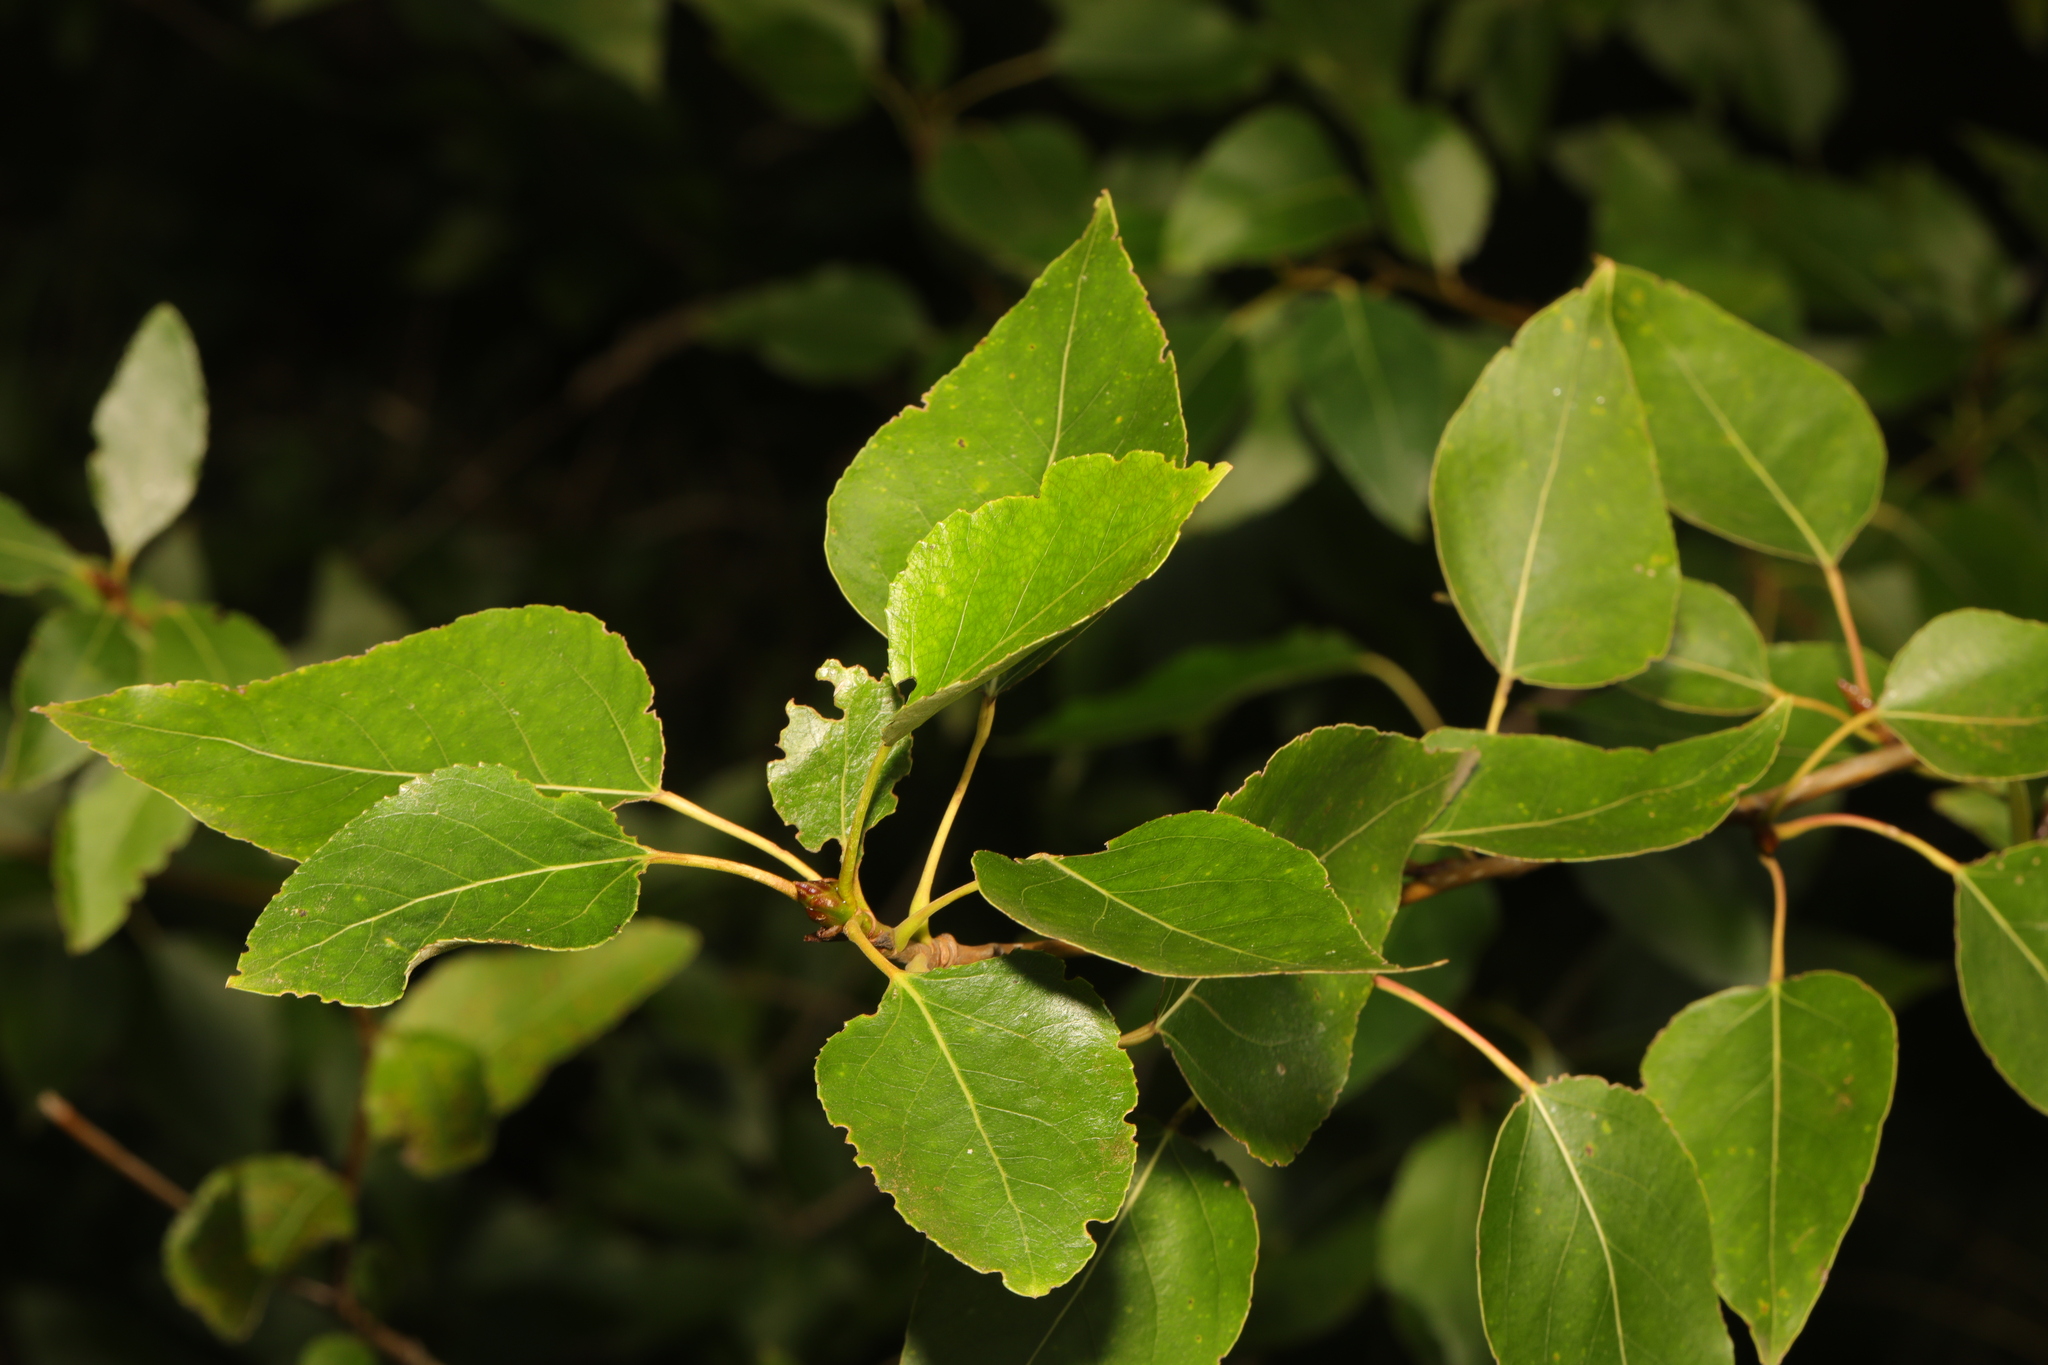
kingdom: Plantae
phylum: Tracheophyta
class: Magnoliopsida
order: Malpighiales
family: Salicaceae
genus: Populus
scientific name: Populus trichocarpa
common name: Black cottonwood
